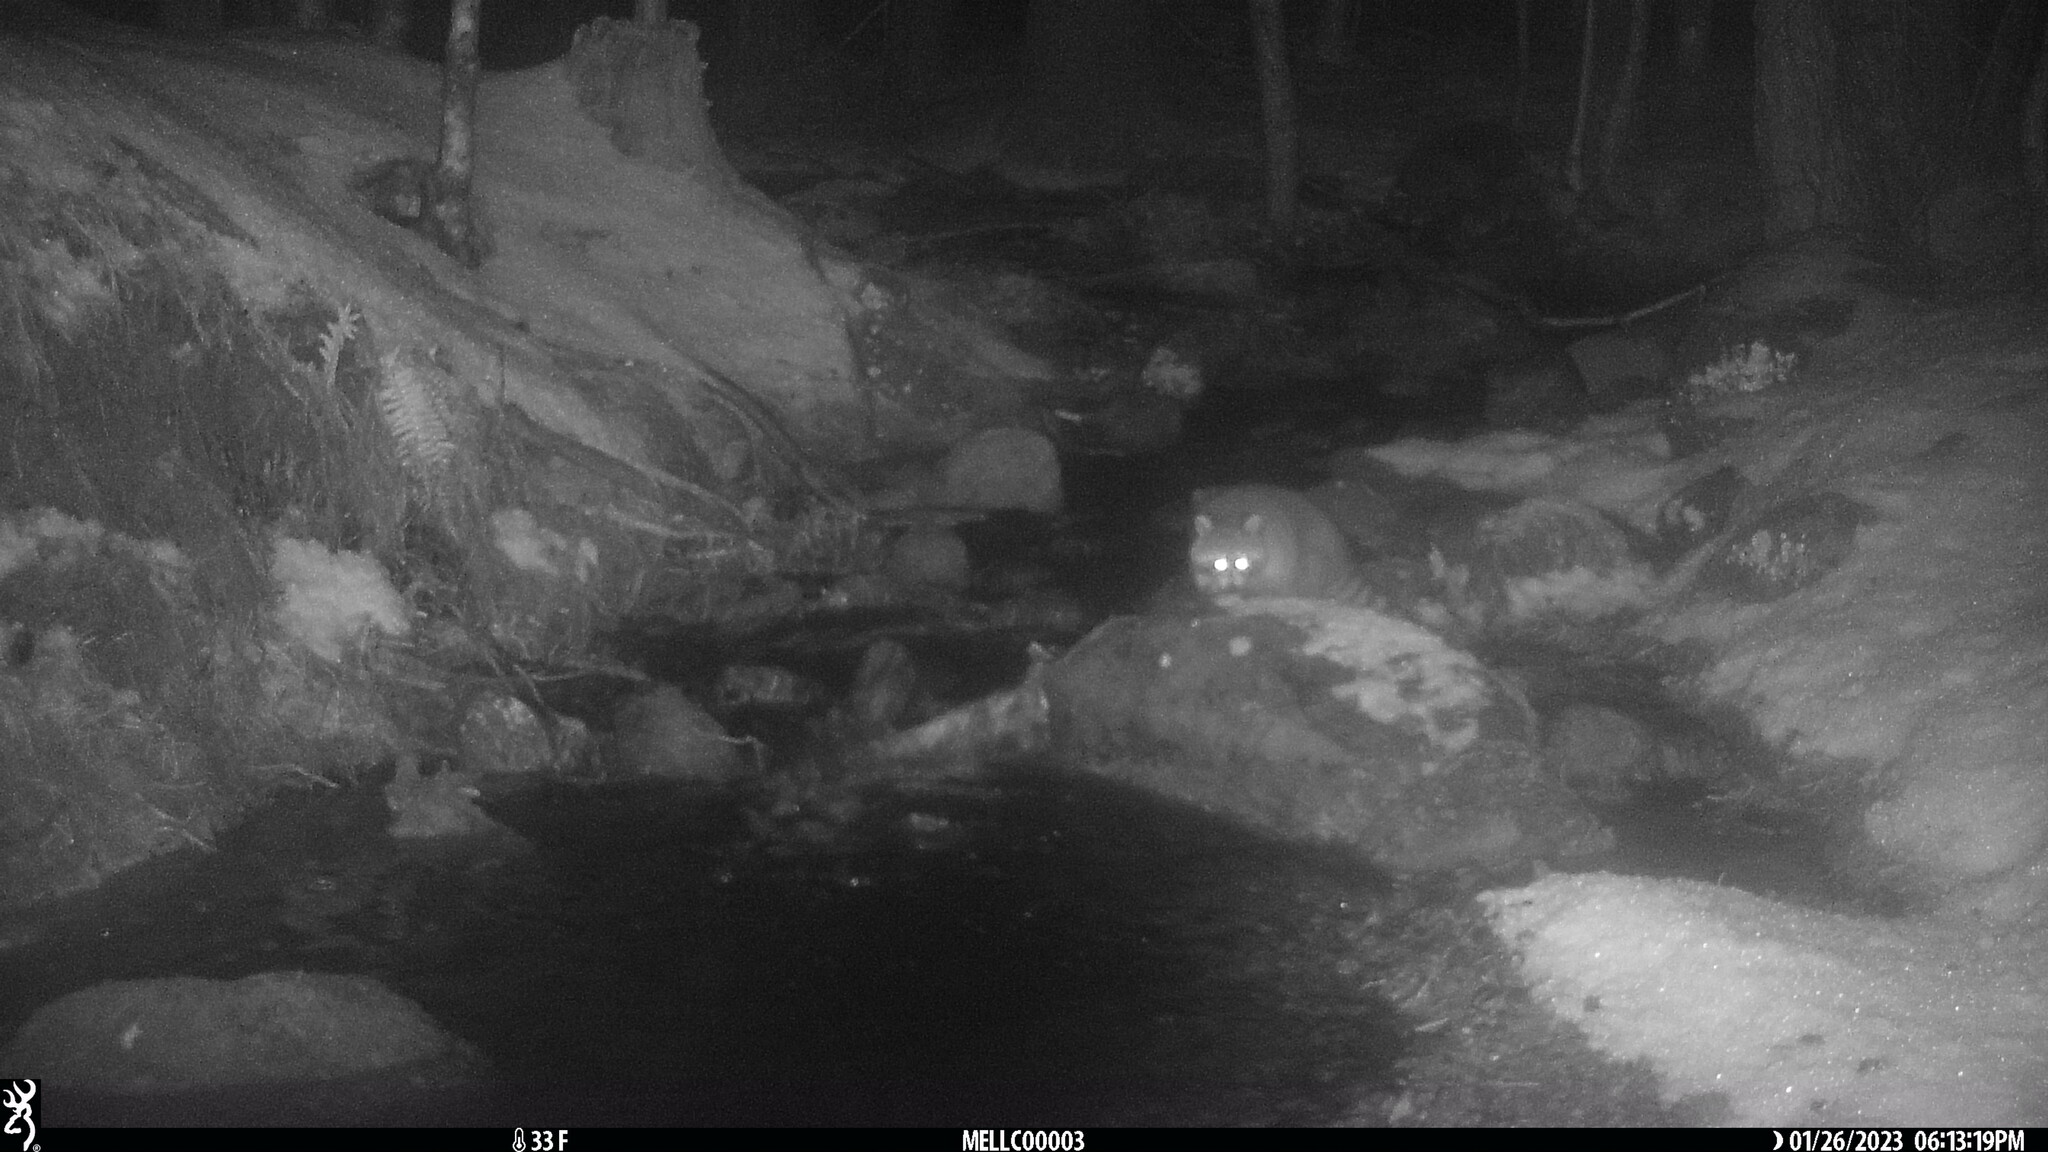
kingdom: Animalia
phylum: Chordata
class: Mammalia
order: Carnivora
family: Procyonidae
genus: Procyon
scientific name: Procyon lotor
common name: Raccoon
